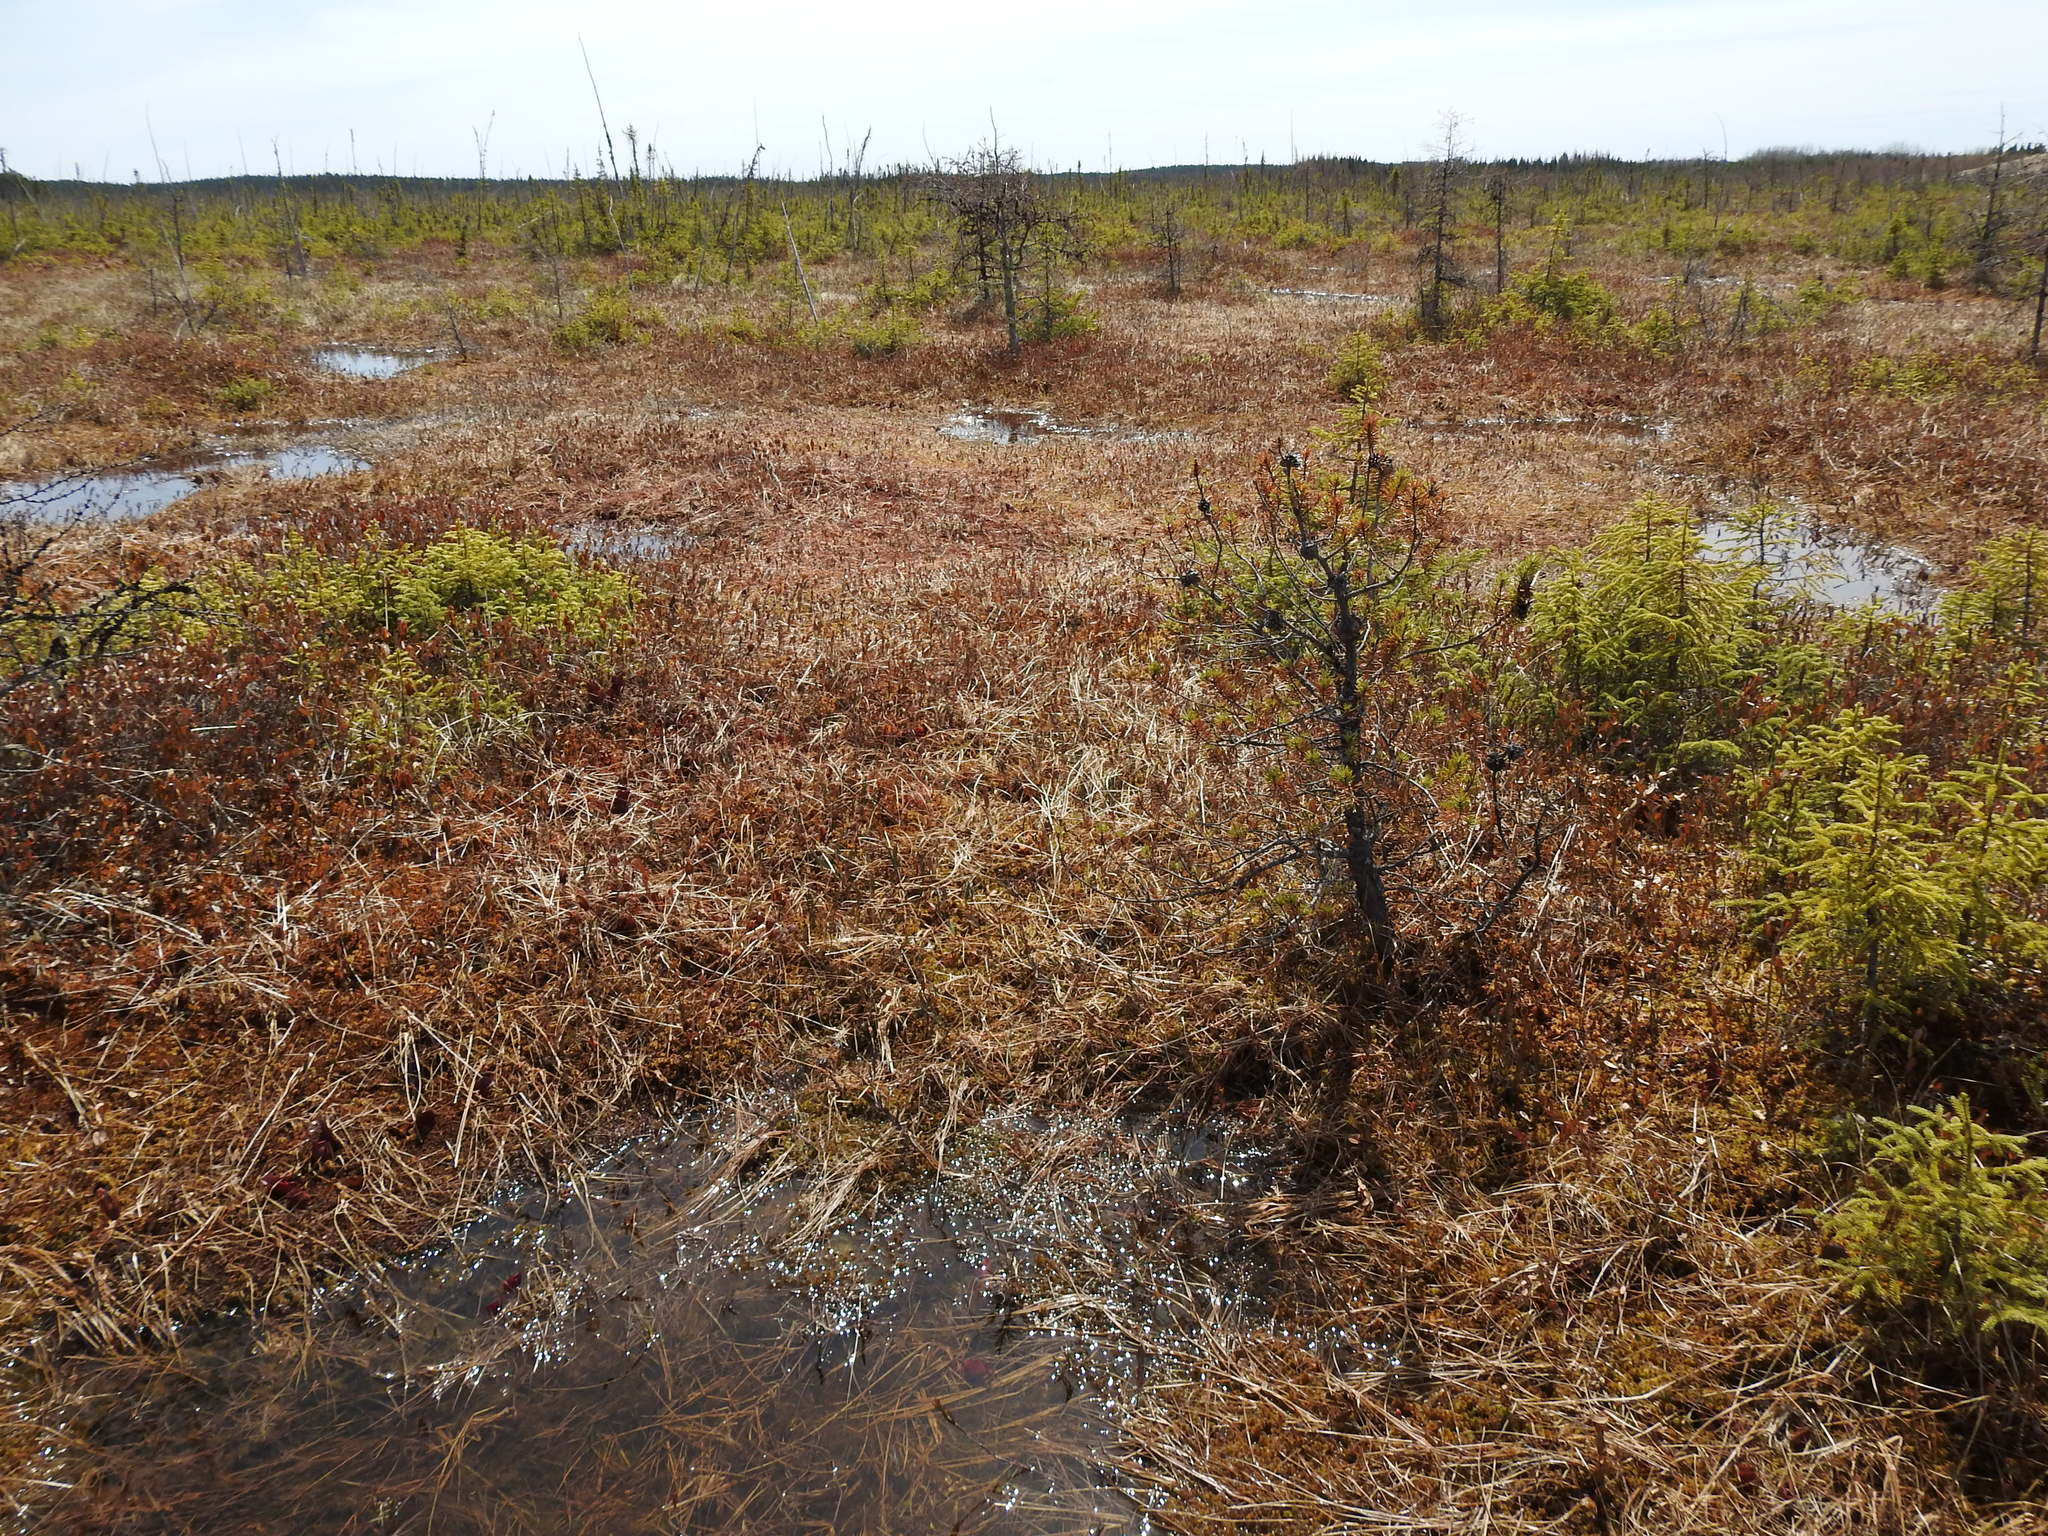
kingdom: Plantae
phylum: Tracheophyta
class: Pinopsida
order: Pinales
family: Pinaceae
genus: Pinus
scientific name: Pinus banksiana
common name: Jack pine
